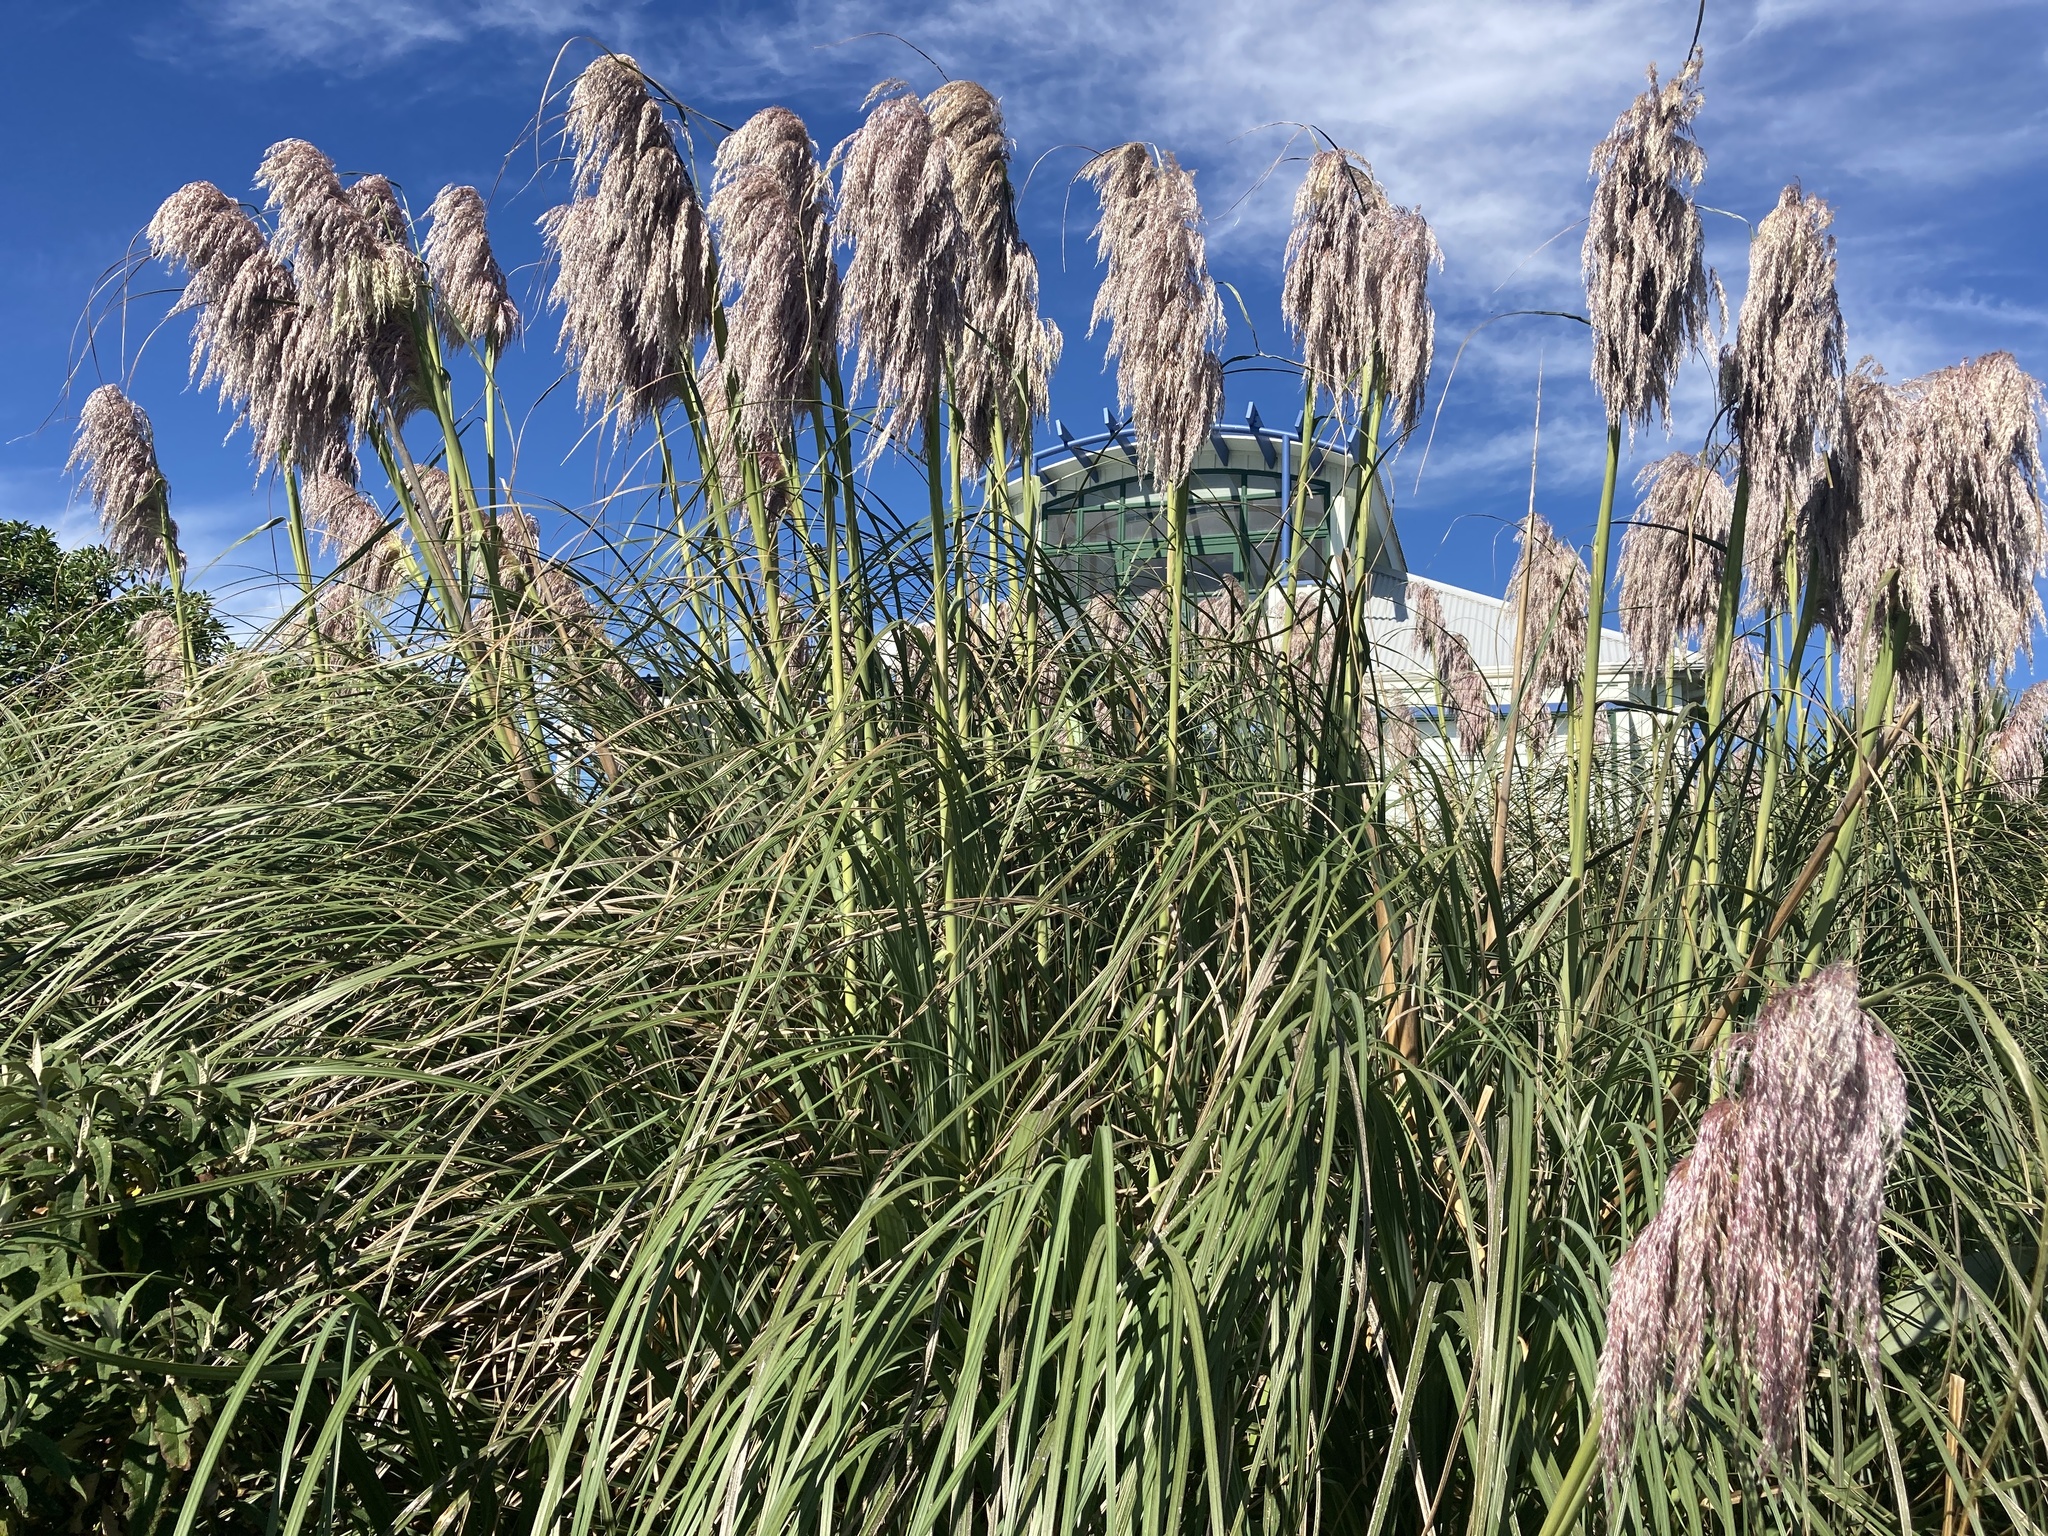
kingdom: Plantae
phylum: Tracheophyta
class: Liliopsida
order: Poales
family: Poaceae
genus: Cortaderia
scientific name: Cortaderia jubata
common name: Purple pampas grass
